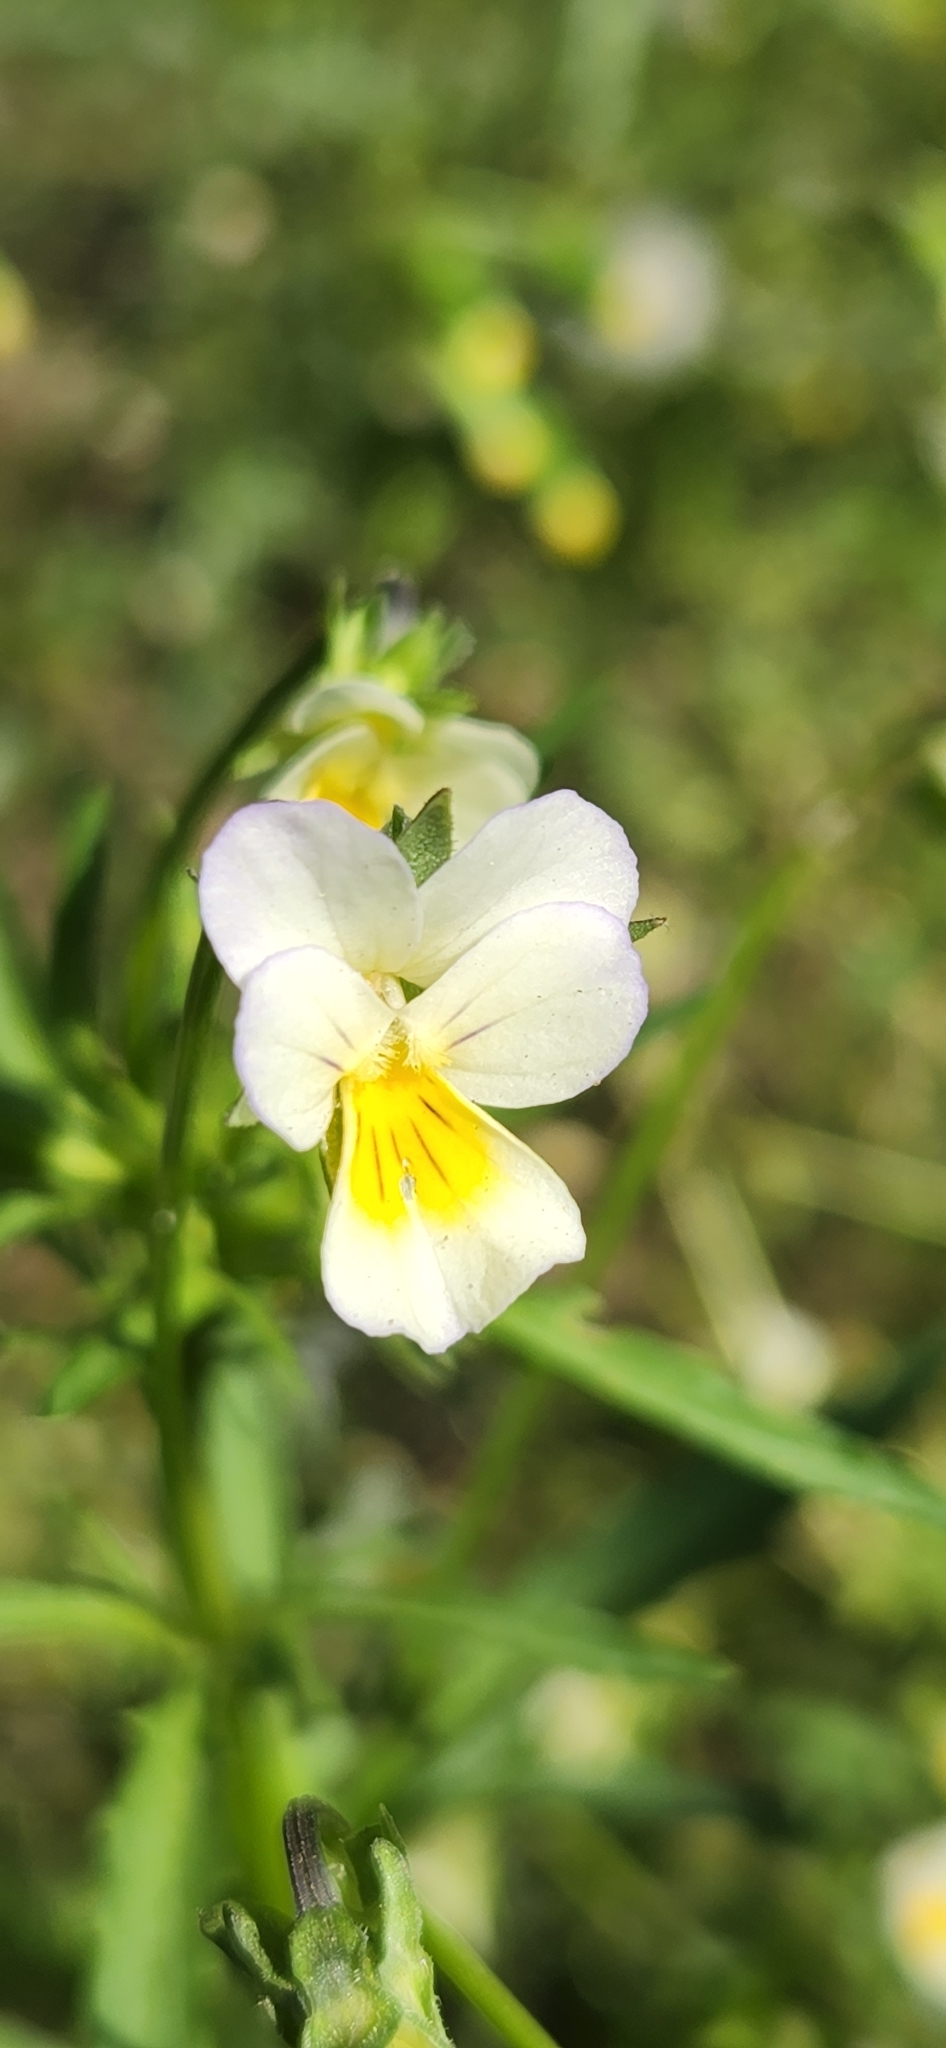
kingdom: Plantae
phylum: Tracheophyta
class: Magnoliopsida
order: Malpighiales
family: Violaceae
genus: Viola
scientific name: Viola arvensis
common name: Field pansy
